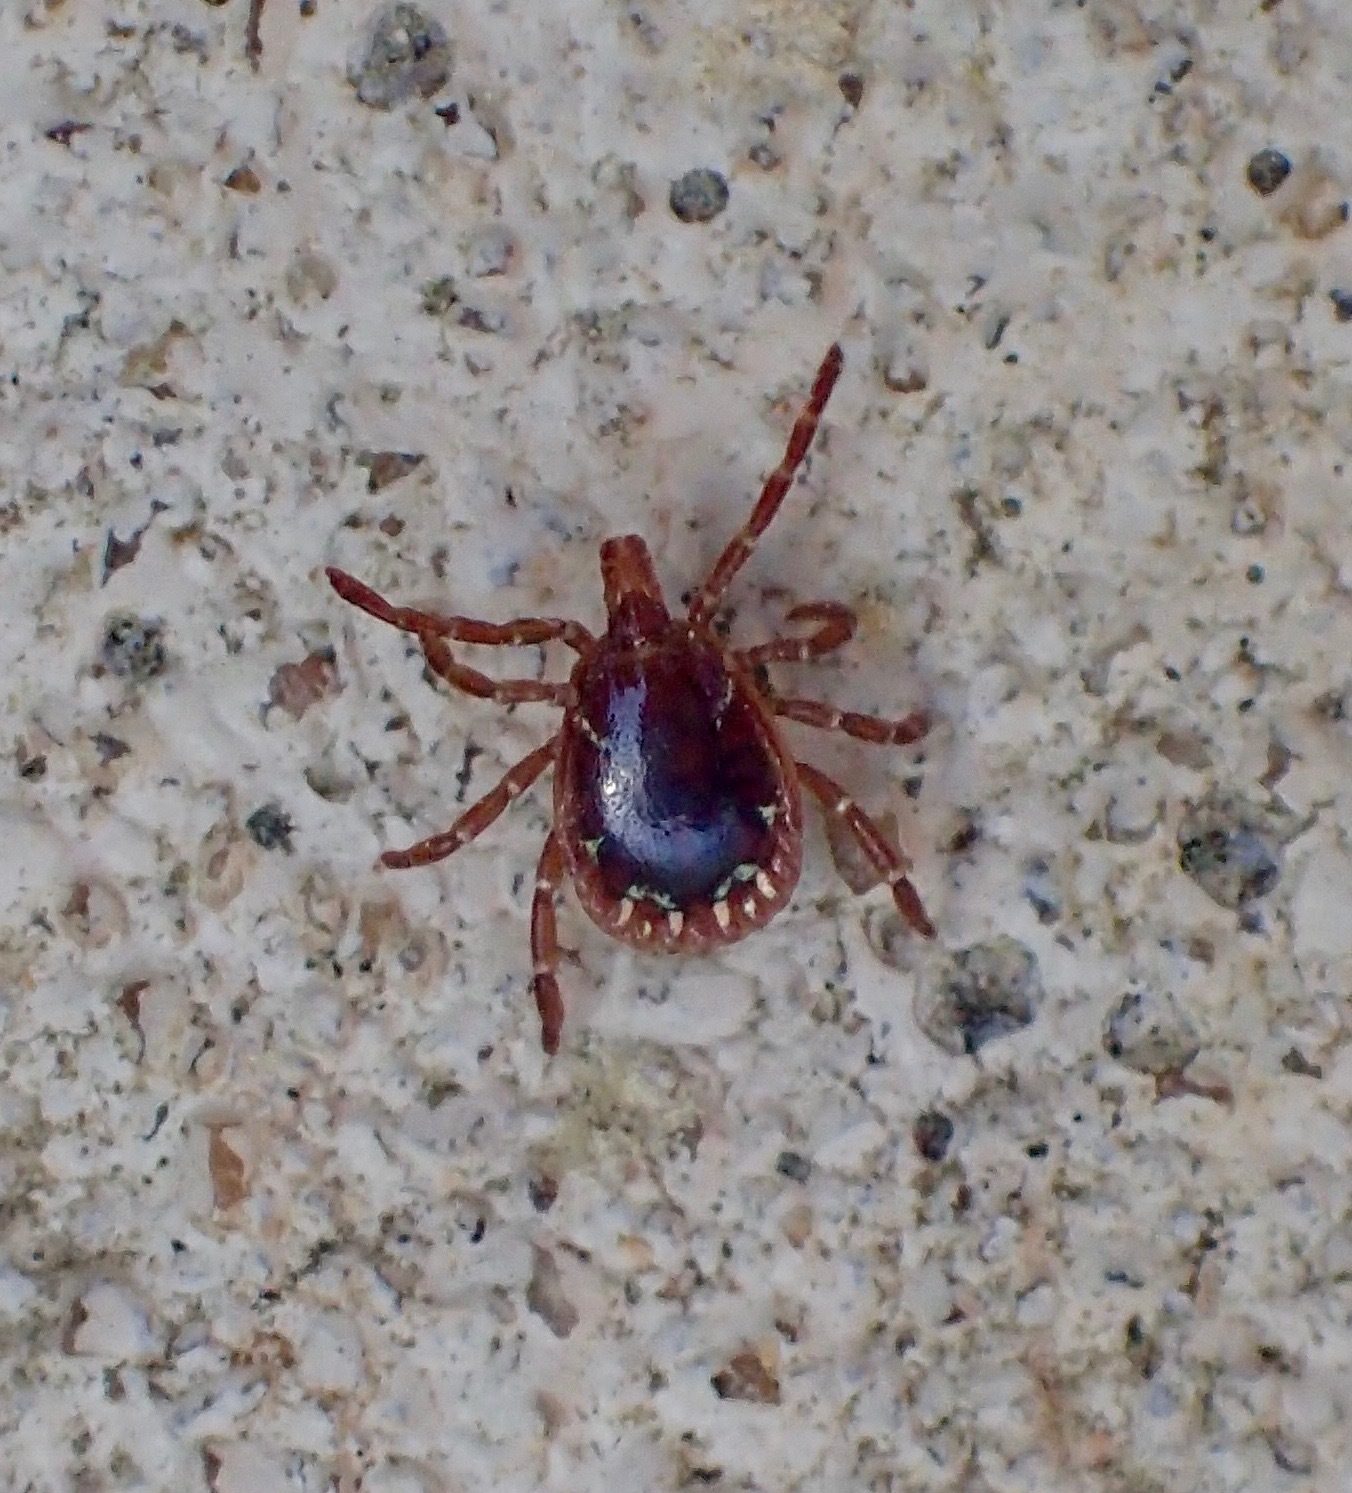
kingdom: Animalia
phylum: Arthropoda
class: Arachnida
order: Ixodida
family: Ixodidae
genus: Amblyomma
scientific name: Amblyomma americanum
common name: Lone star tick
